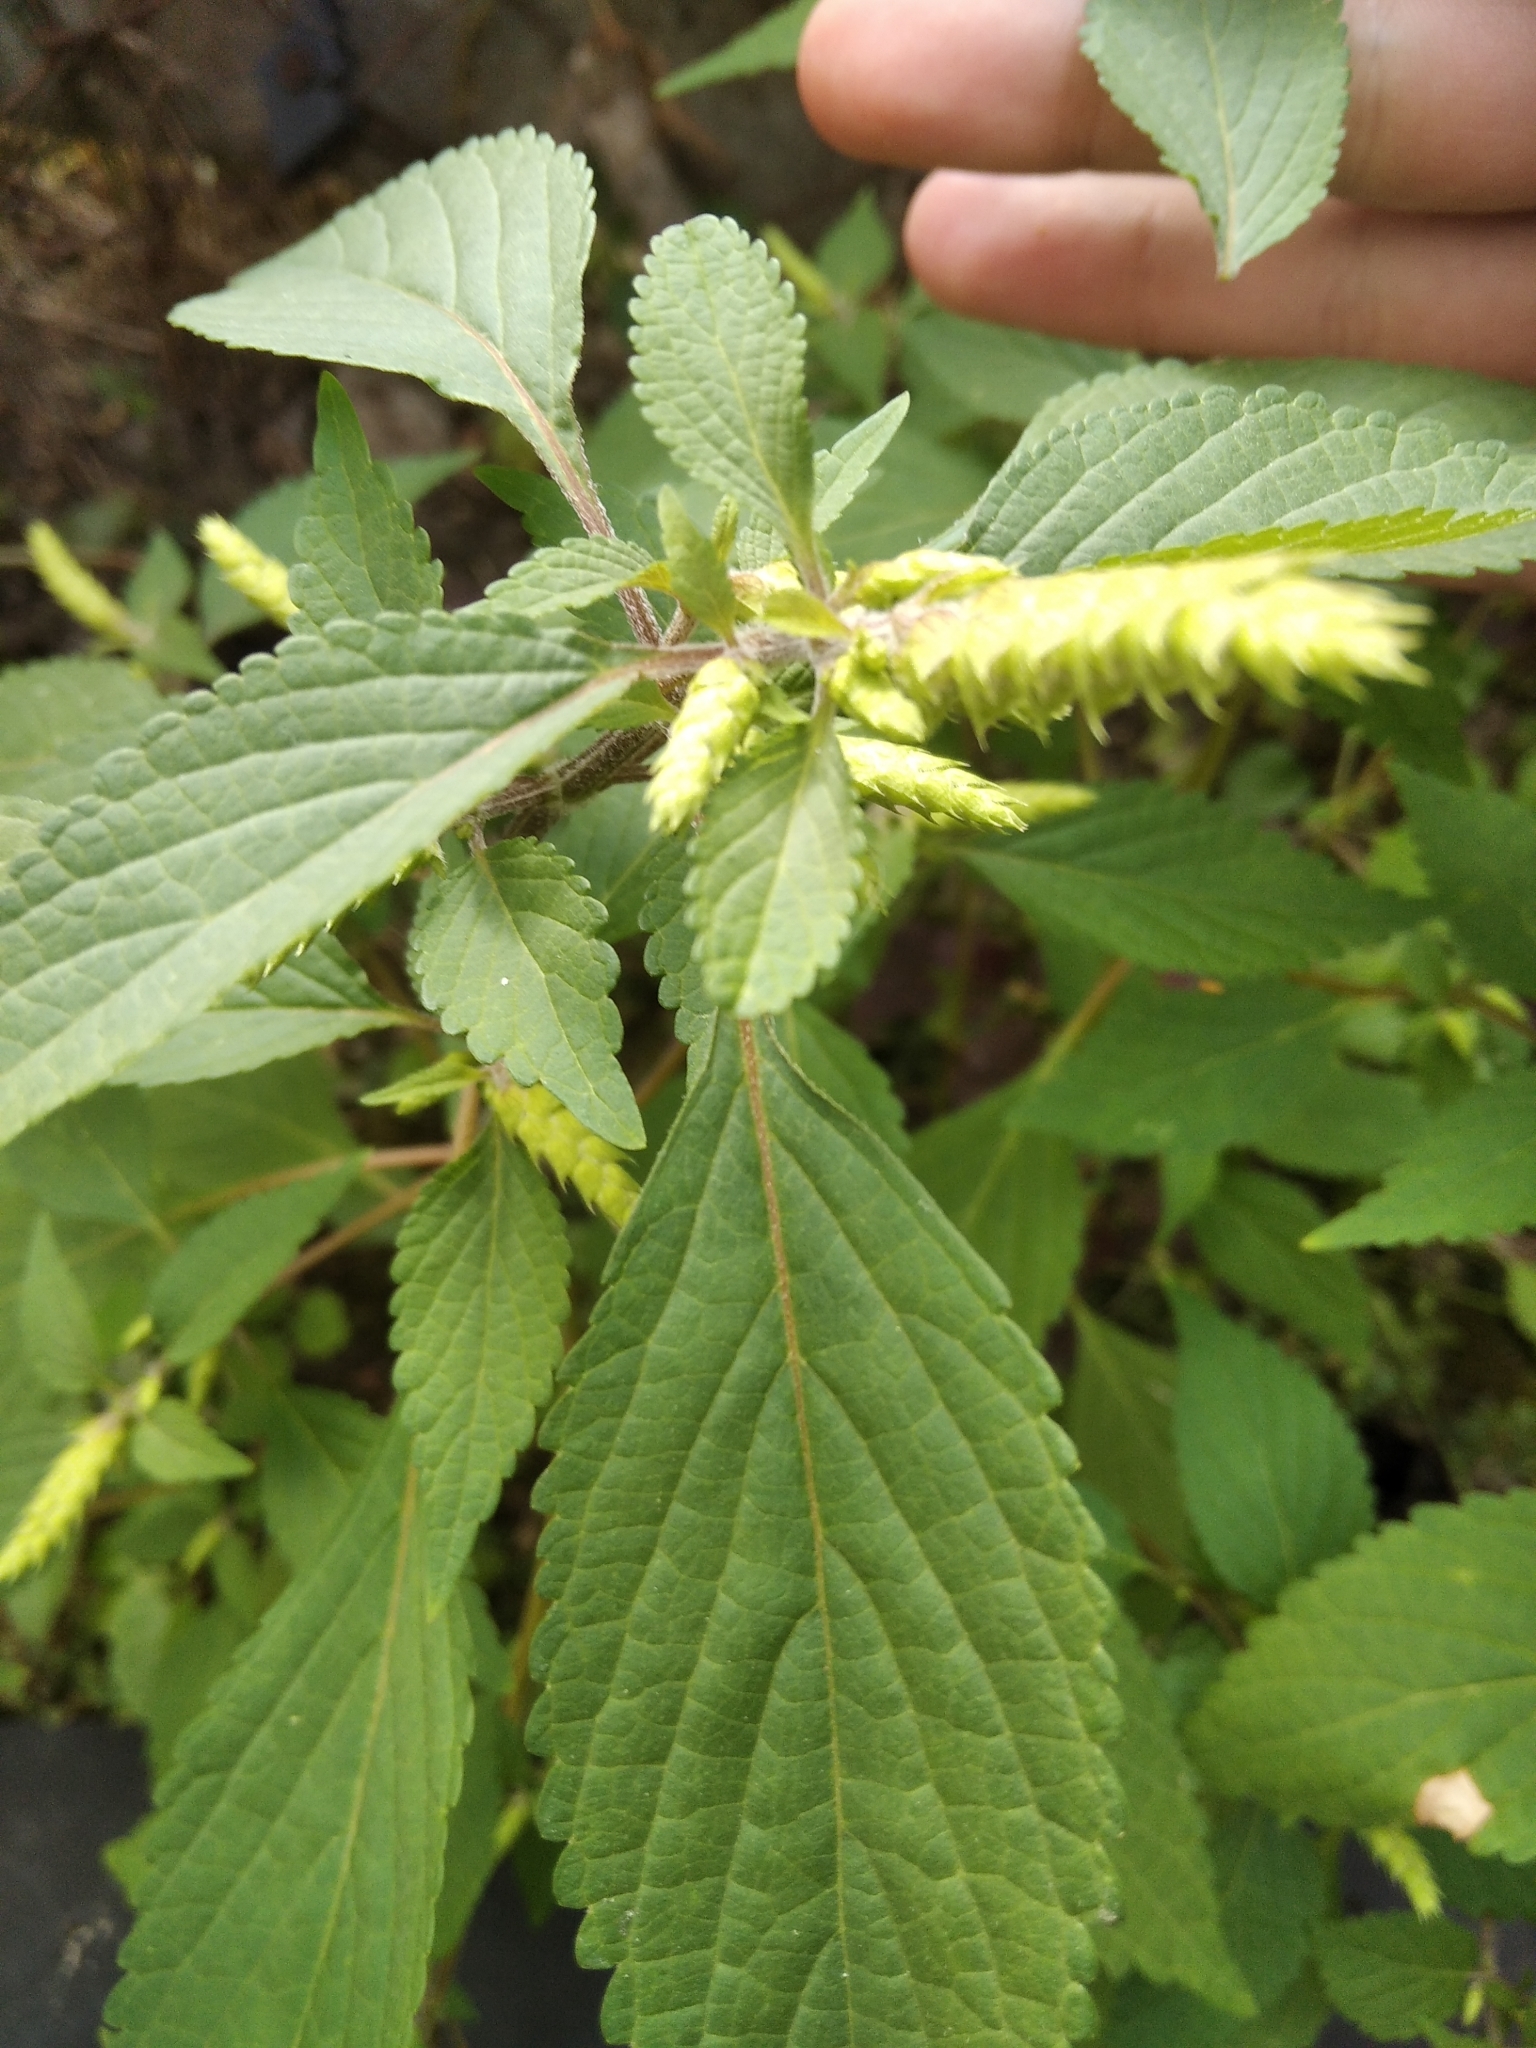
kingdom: Plantae
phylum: Tracheophyta
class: Magnoliopsida
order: Lamiales
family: Lamiaceae
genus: Elsholtzia
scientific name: Elsholtzia ciliata
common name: Ciliate elsholtzia
